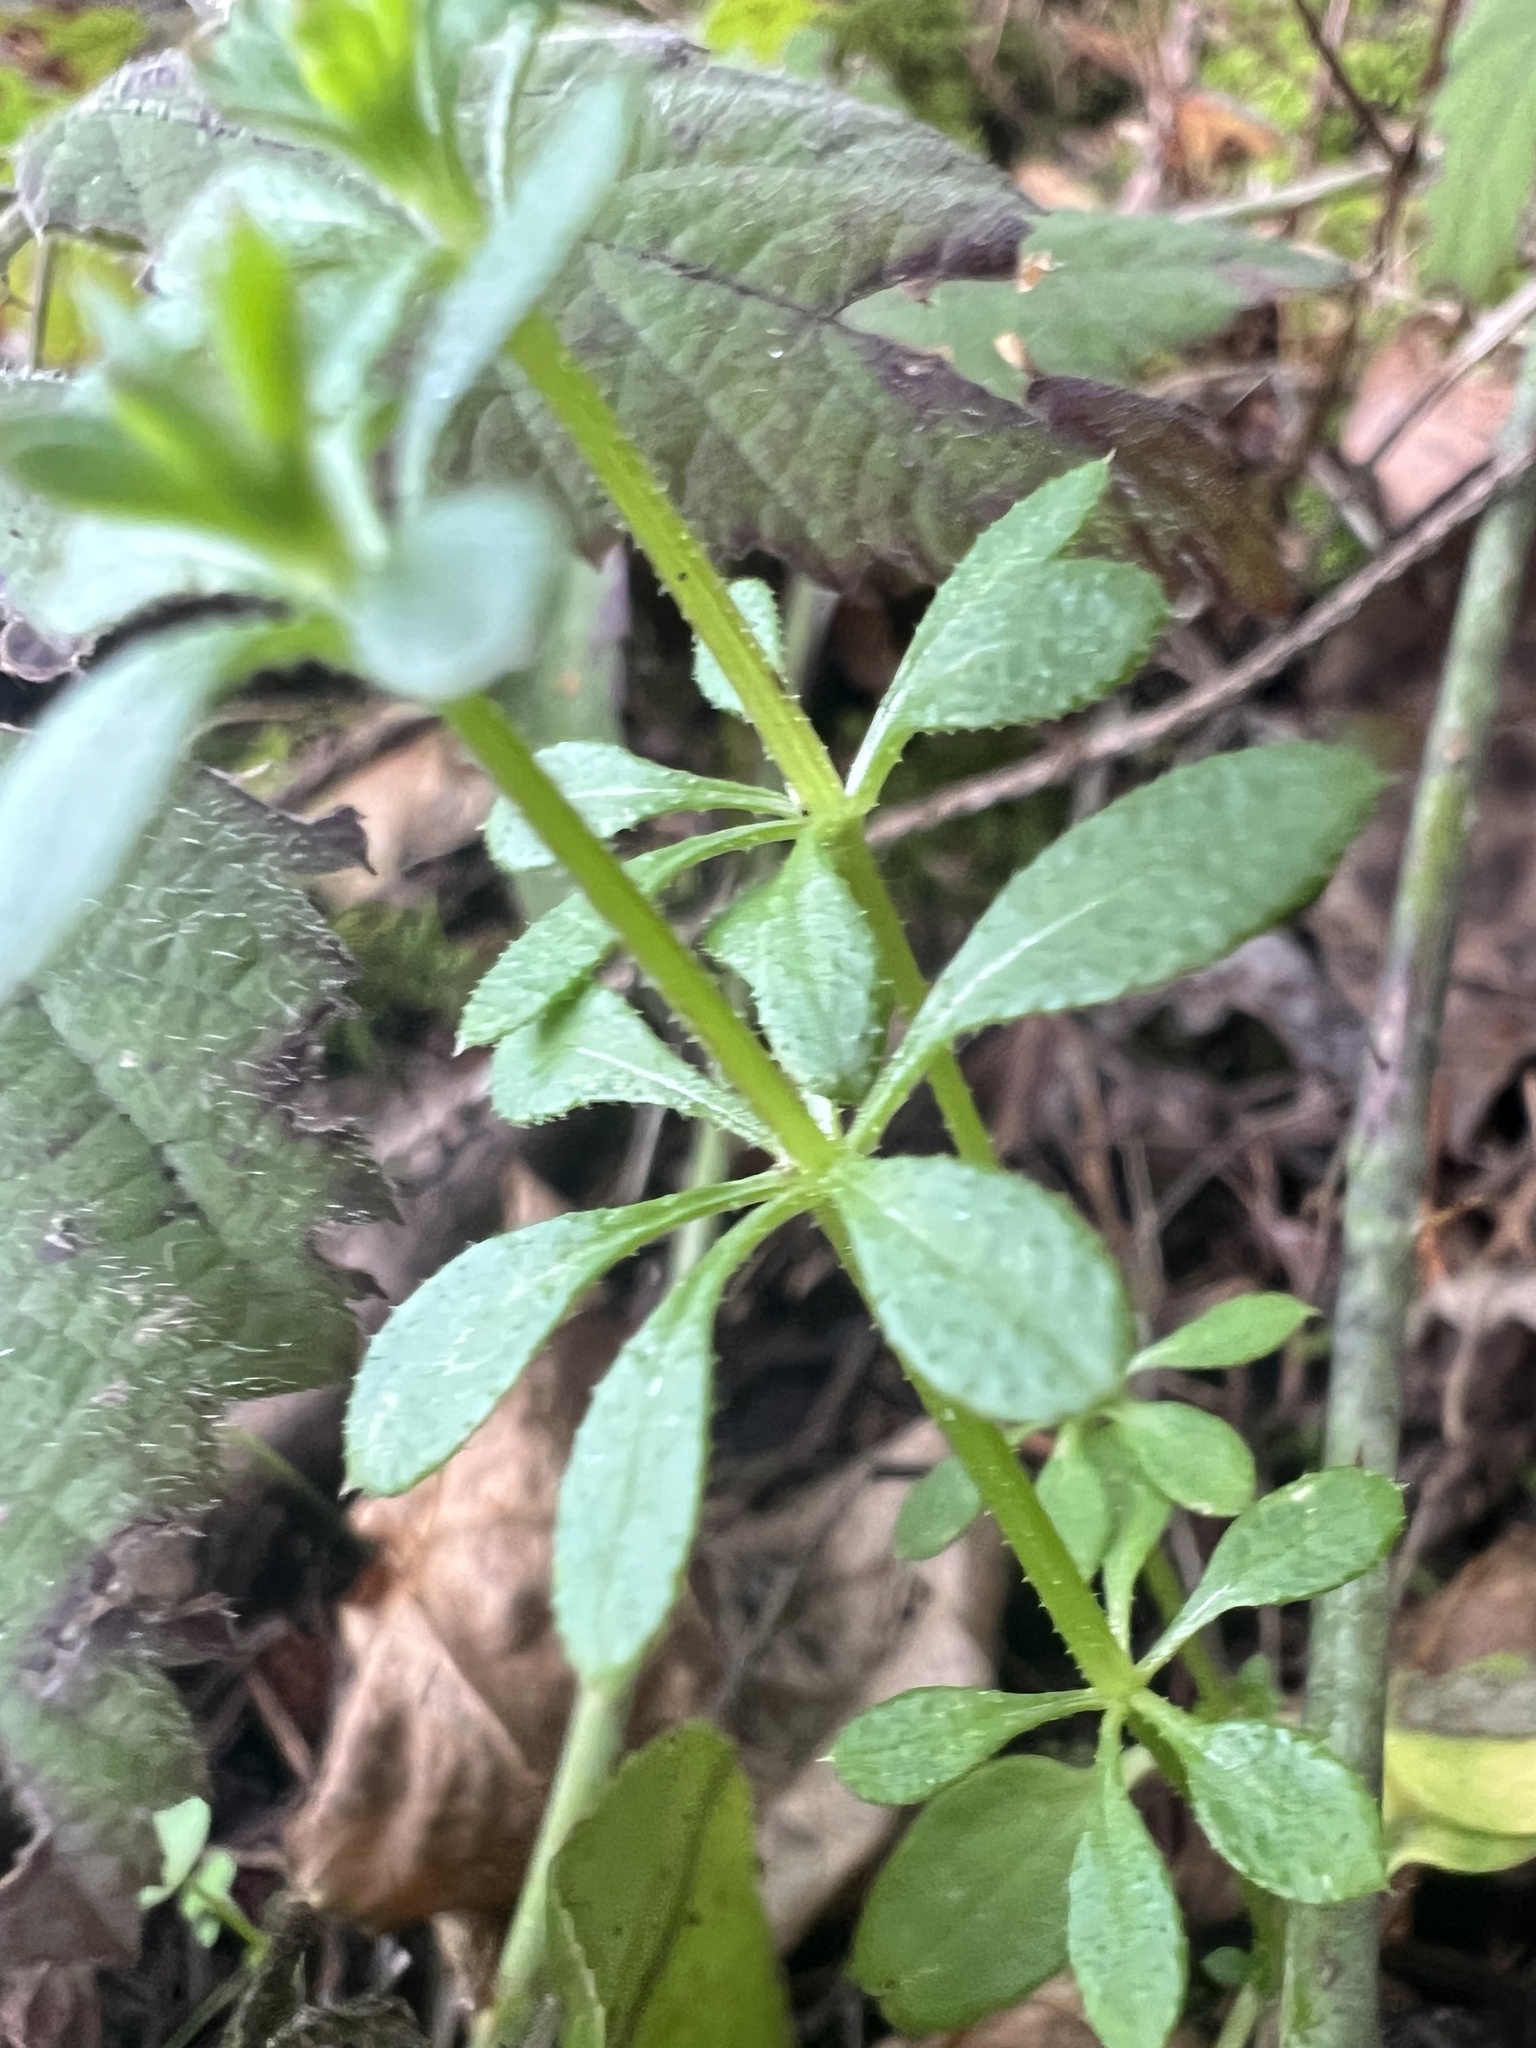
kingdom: Plantae
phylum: Tracheophyta
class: Magnoliopsida
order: Gentianales
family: Rubiaceae
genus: Galium
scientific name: Galium aparine
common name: Cleavers
